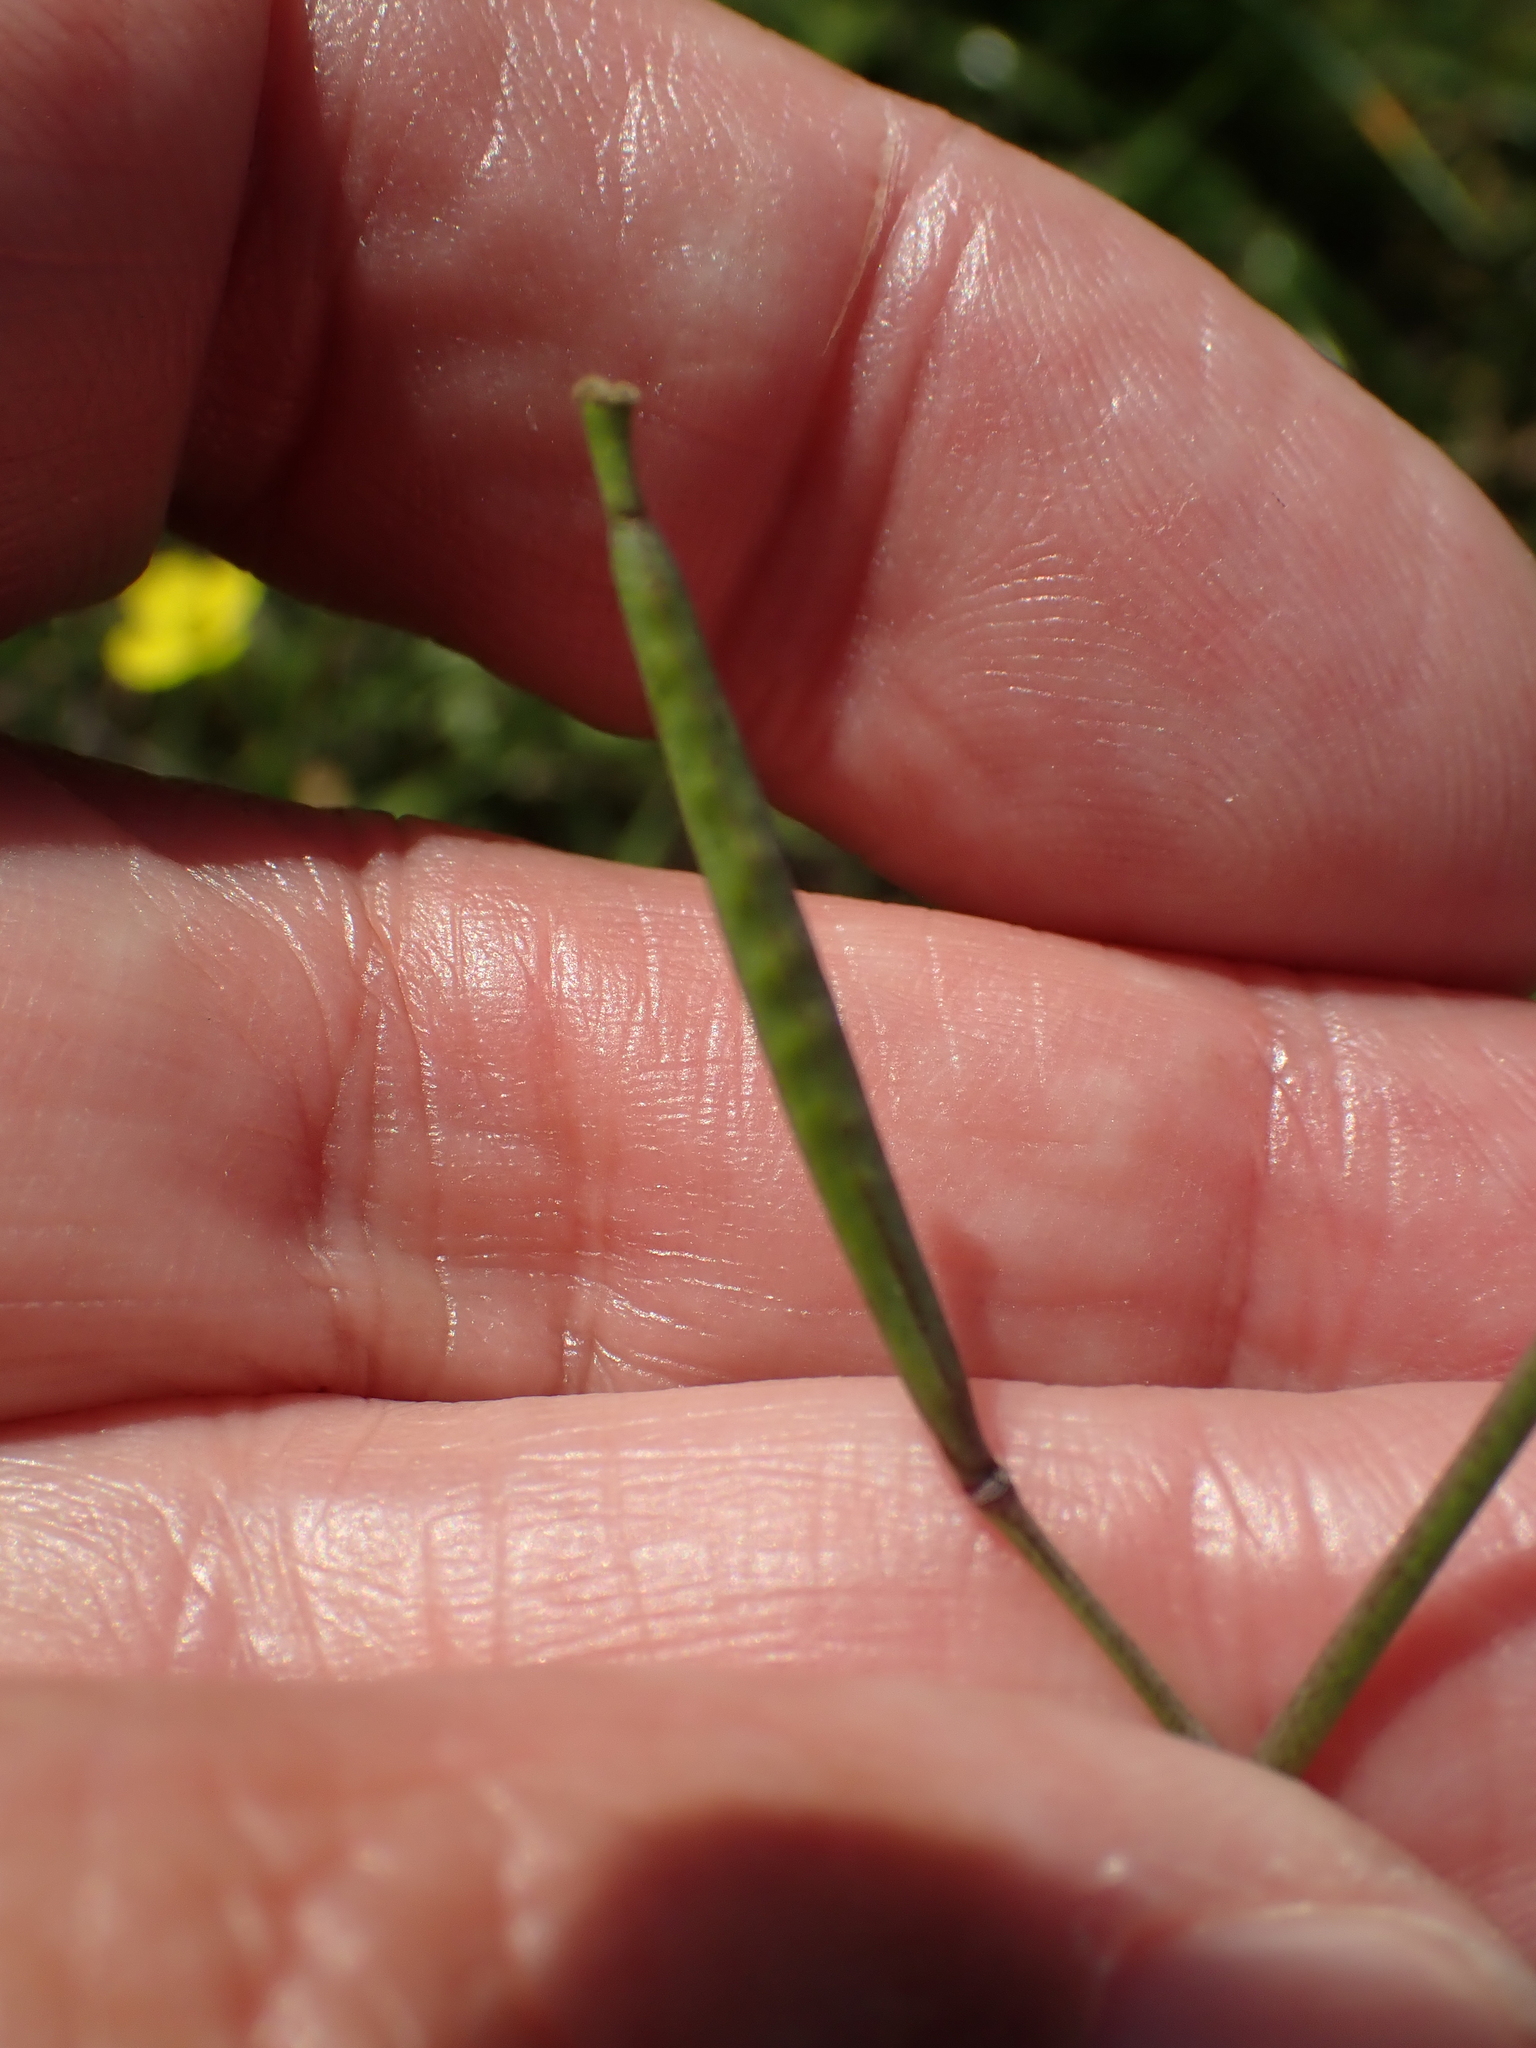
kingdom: Plantae
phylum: Tracheophyta
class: Magnoliopsida
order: Brassicales
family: Brassicaceae
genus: Diplotaxis
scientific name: Diplotaxis muralis
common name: Annual wall-rocket
